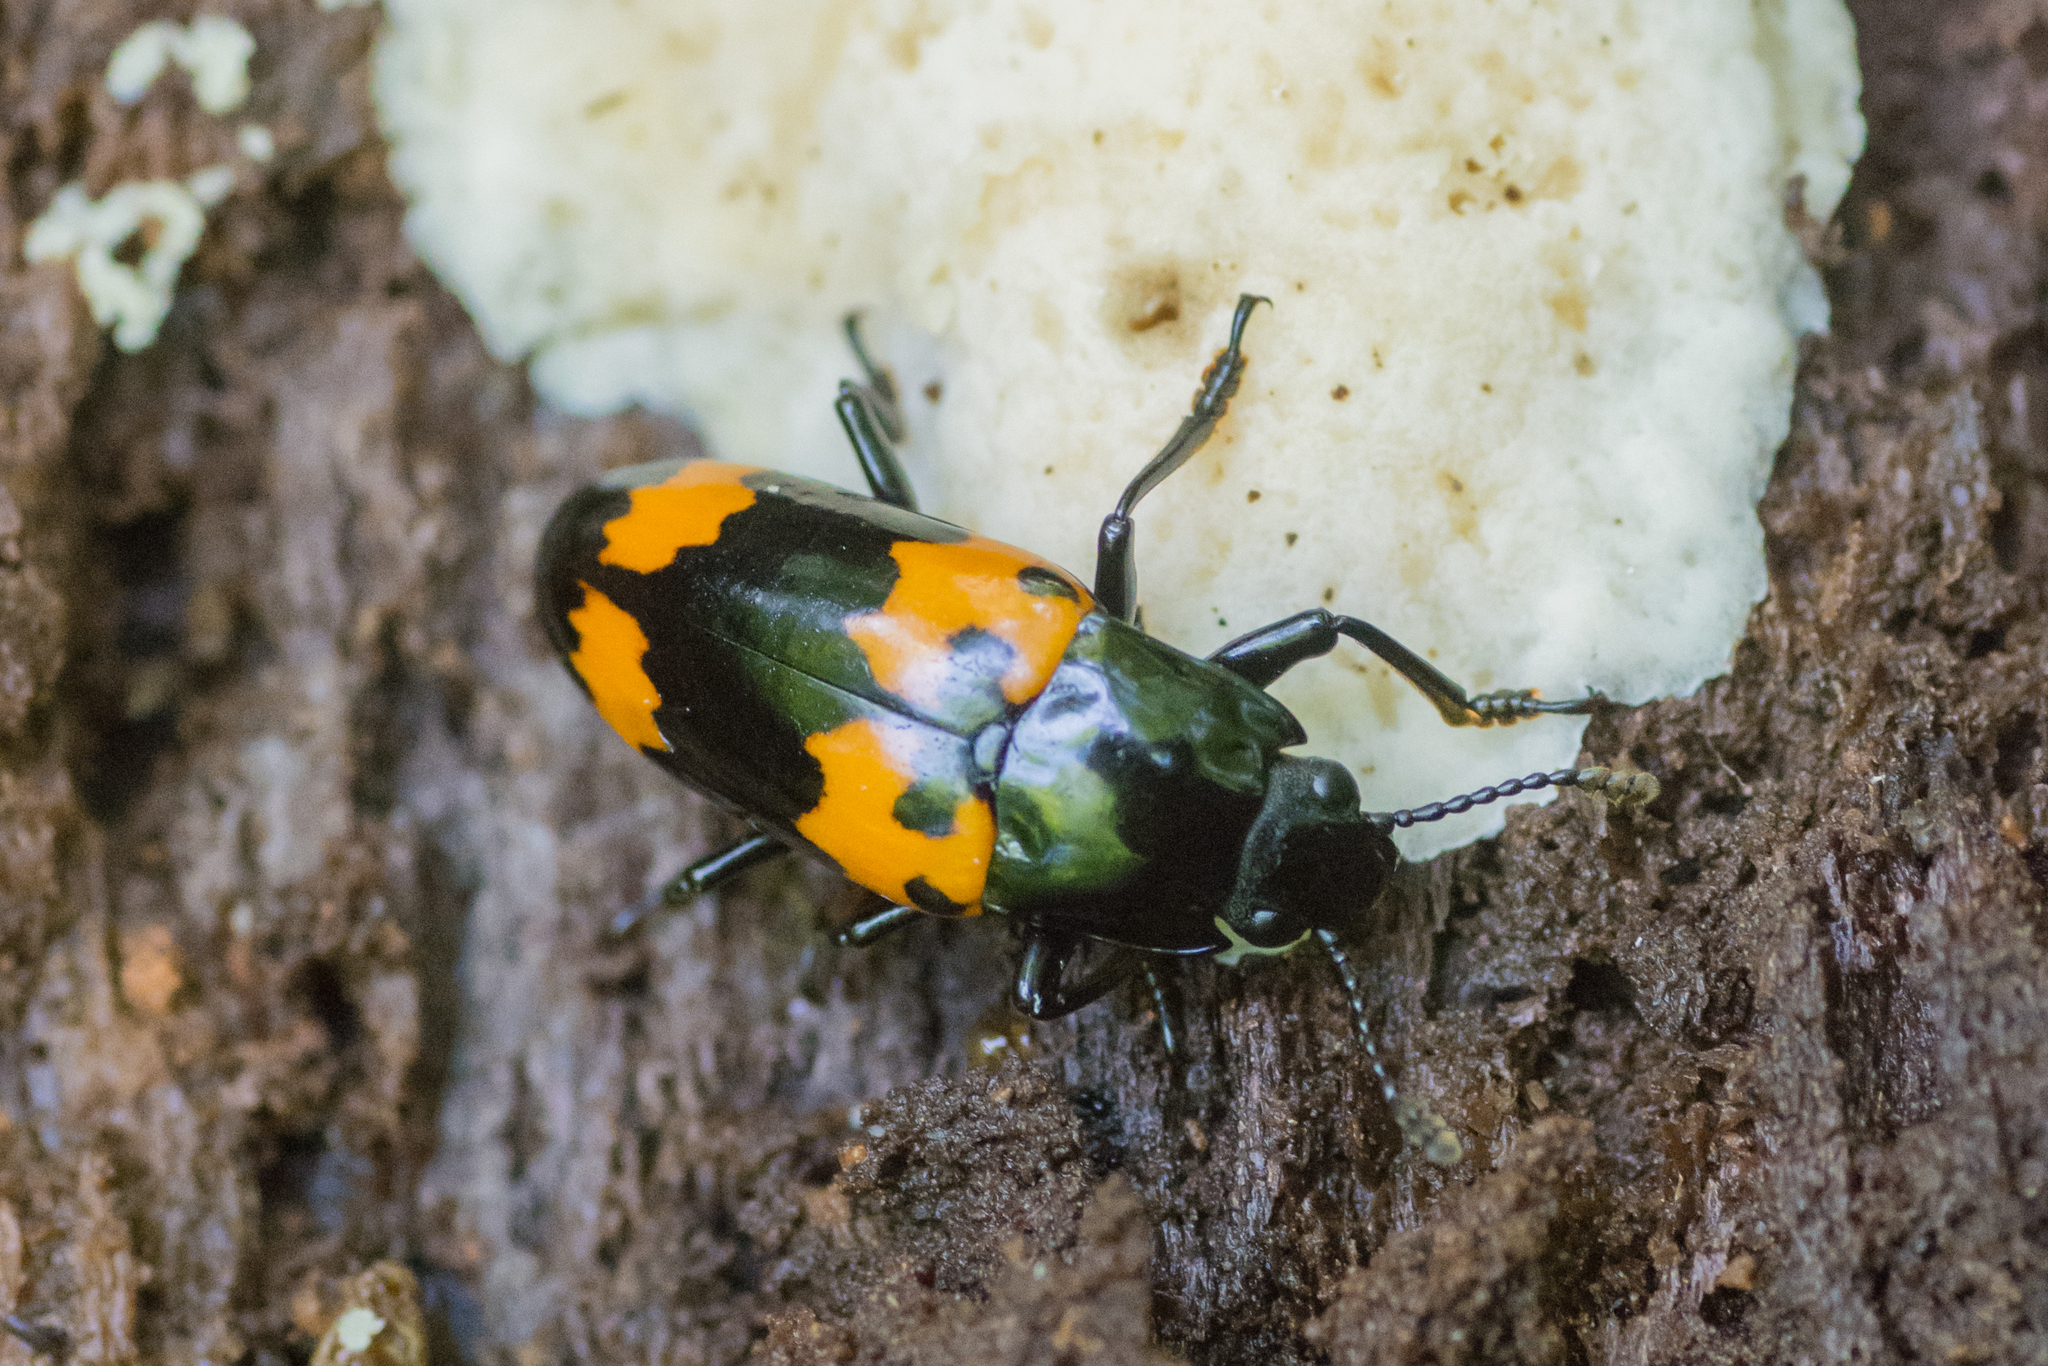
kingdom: Animalia
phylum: Arthropoda
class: Insecta
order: Coleoptera
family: Erotylidae
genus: Megalodacne
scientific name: Megalodacne heros
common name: Pleasing fungus beetle
